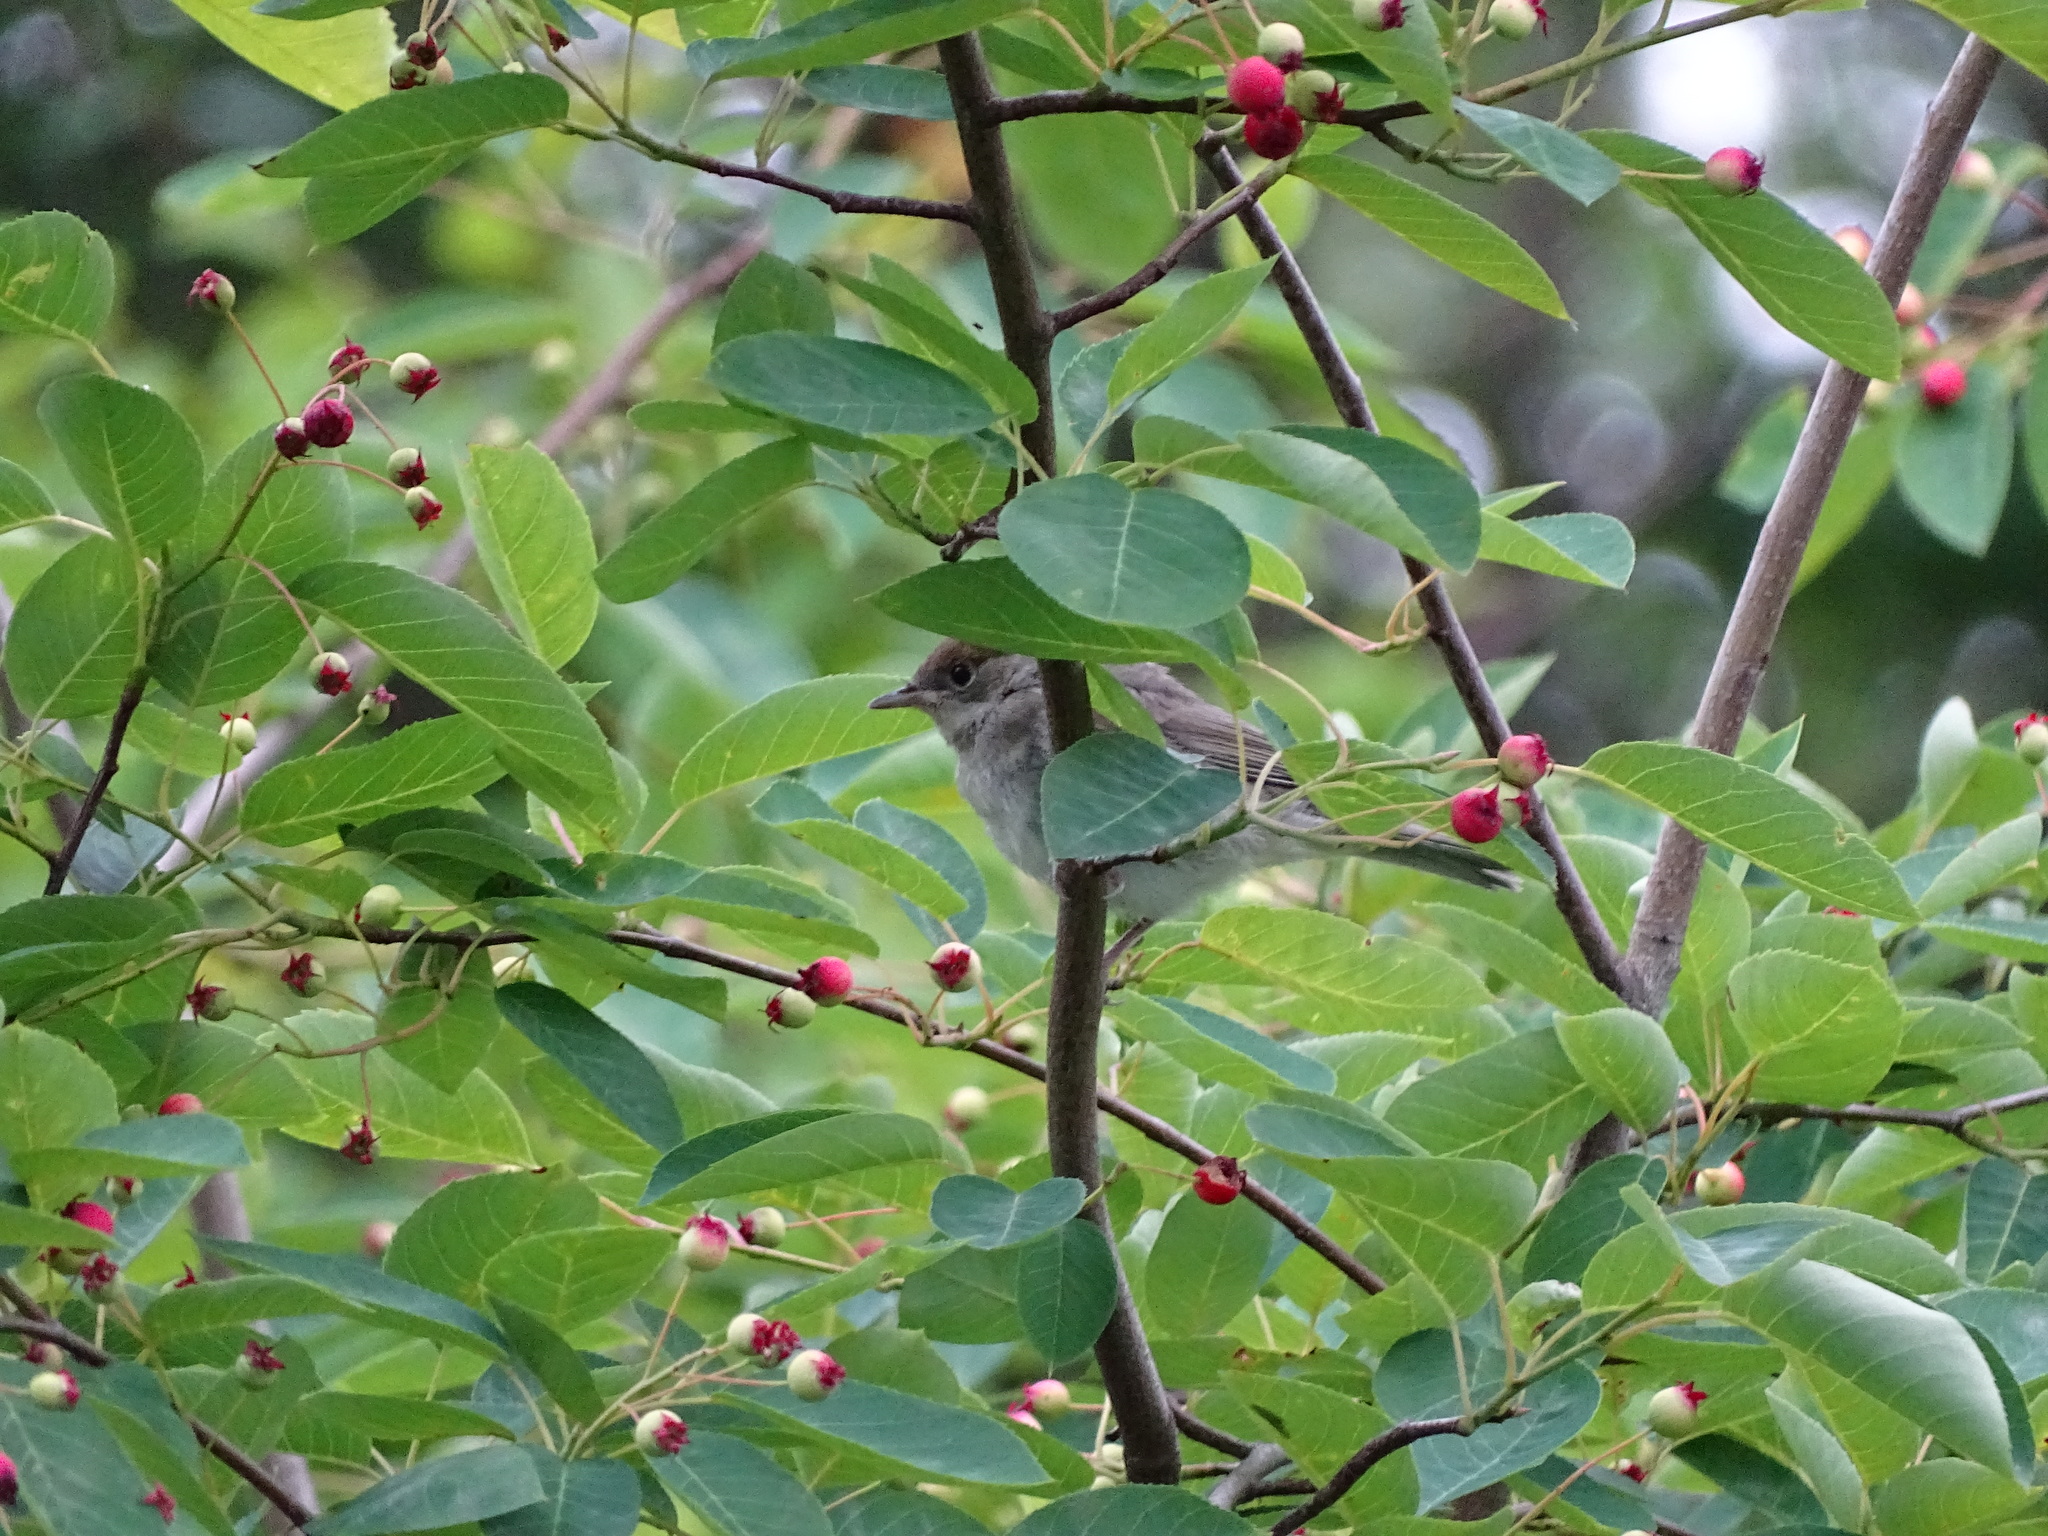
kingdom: Animalia
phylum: Chordata
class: Aves
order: Passeriformes
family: Sylviidae
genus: Sylvia
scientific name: Sylvia atricapilla
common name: Eurasian blackcap
